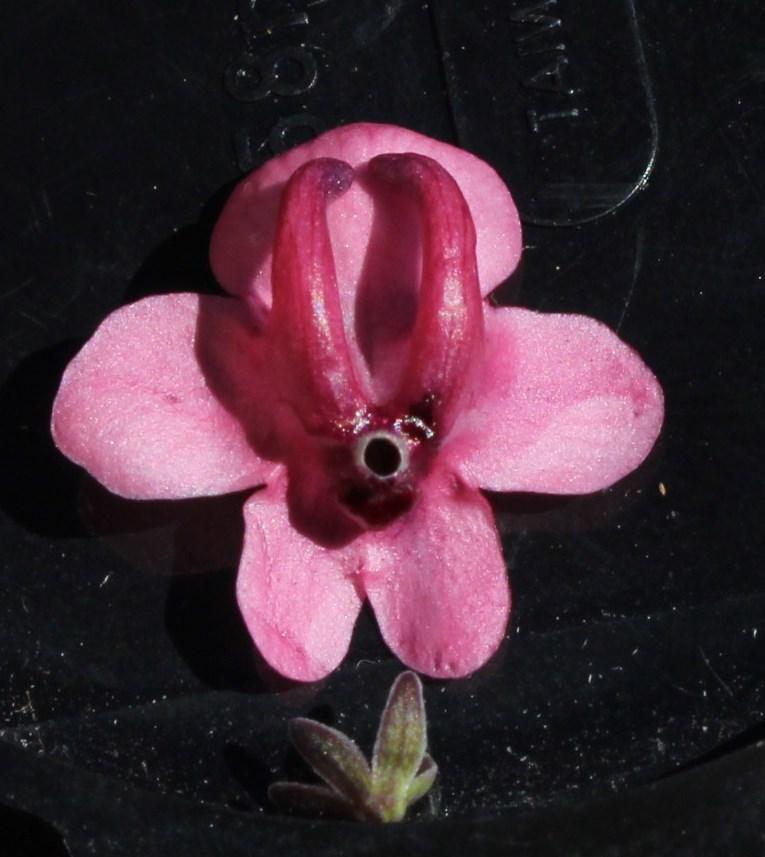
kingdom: Plantae
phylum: Tracheophyta
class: Magnoliopsida
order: Lamiales
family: Scrophulariaceae
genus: Diascia
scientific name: Diascia integerrima
